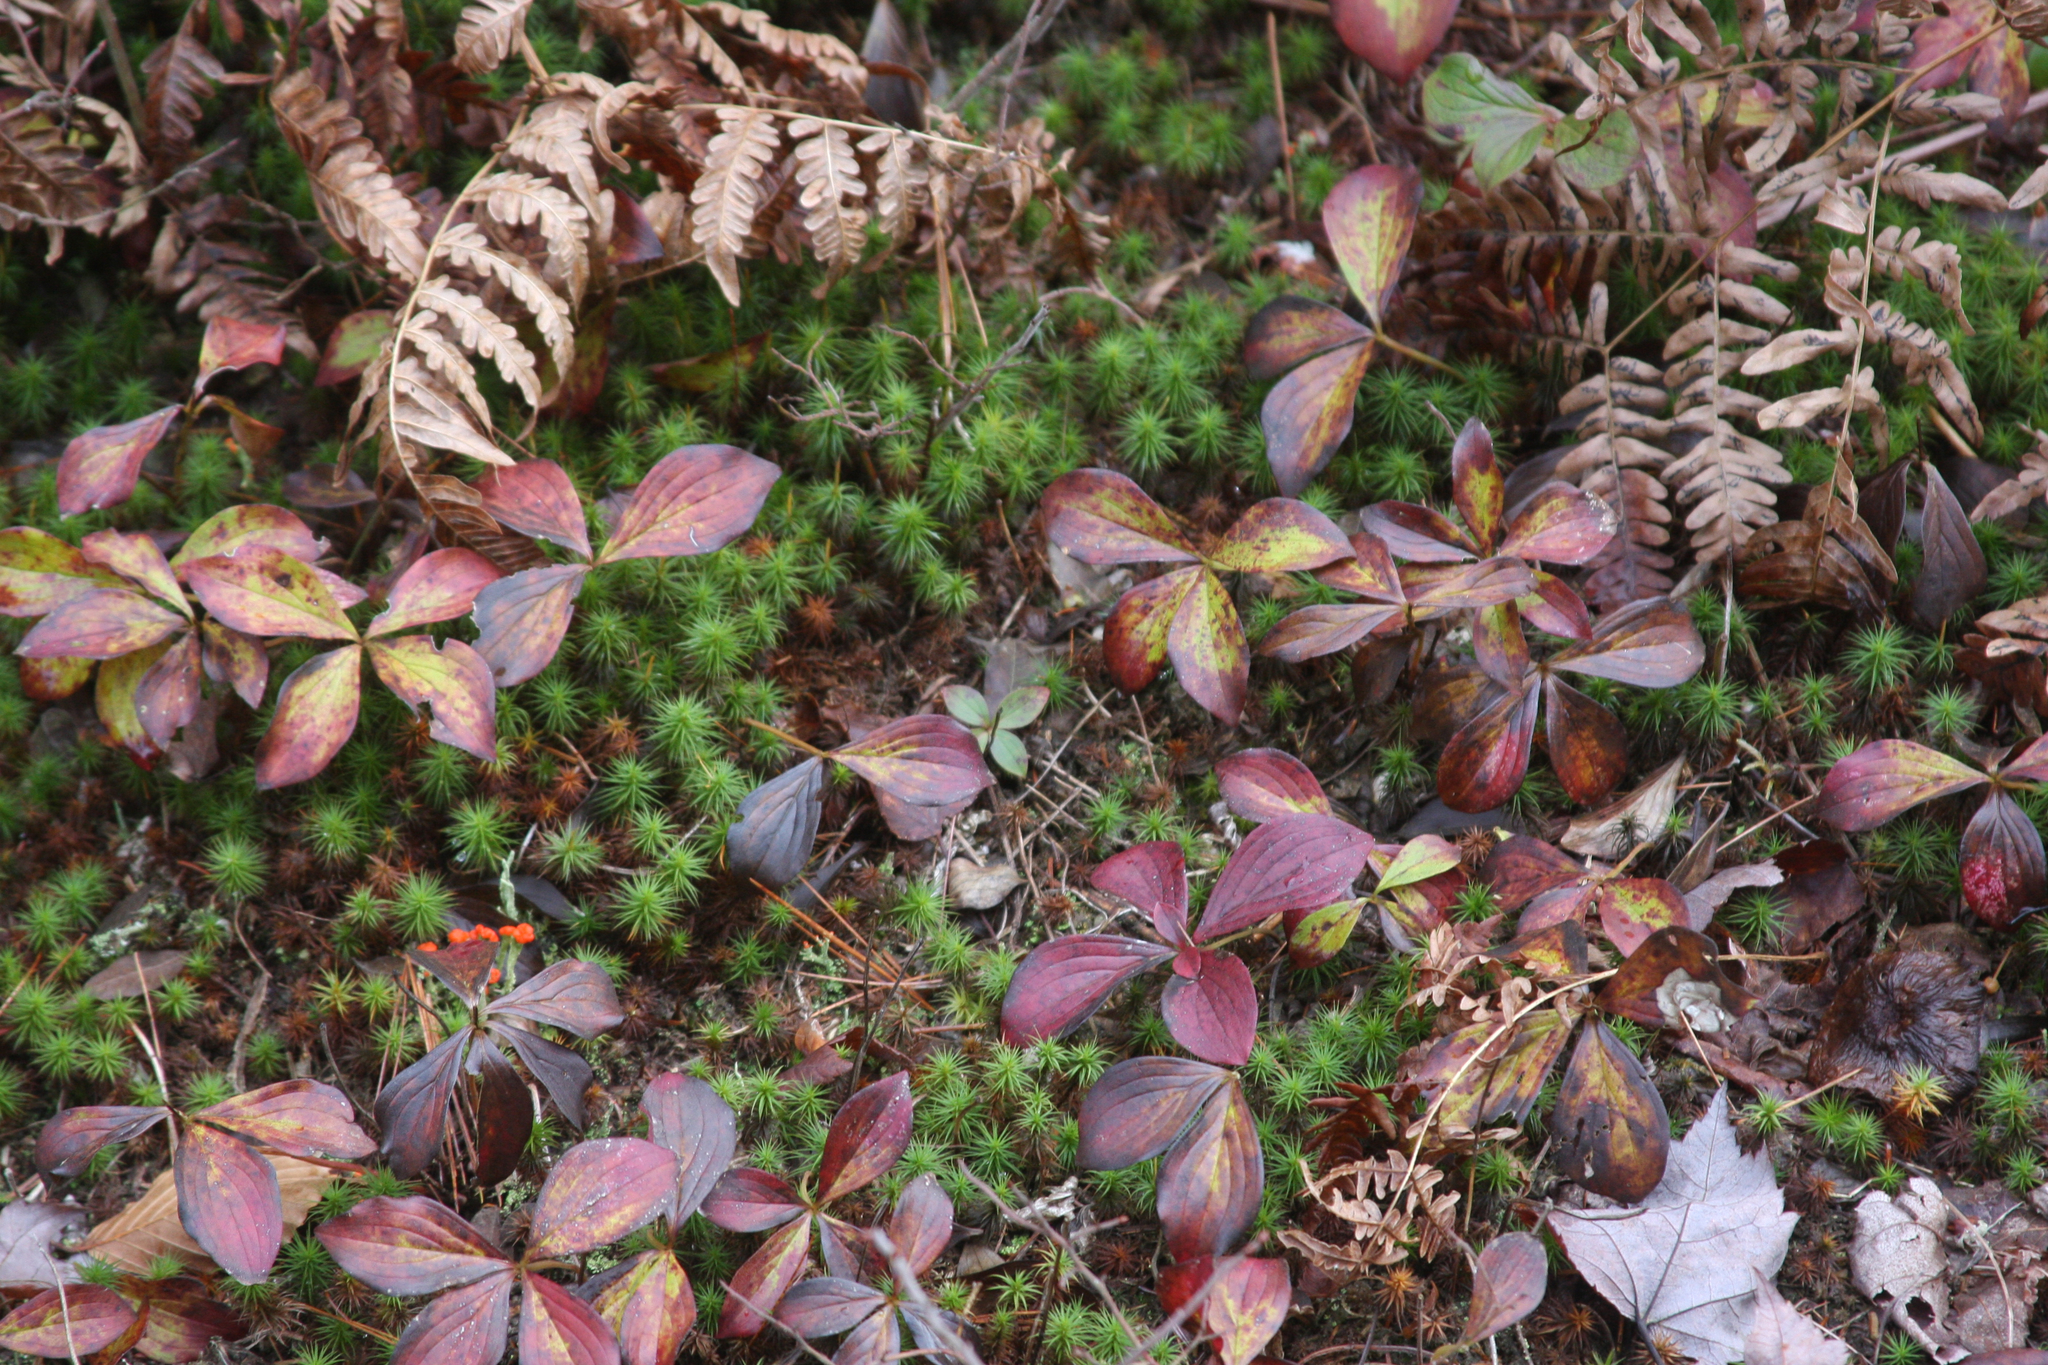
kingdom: Plantae
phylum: Tracheophyta
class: Magnoliopsida
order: Cornales
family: Cornaceae
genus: Cornus
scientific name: Cornus canadensis
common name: Creeping dogwood
